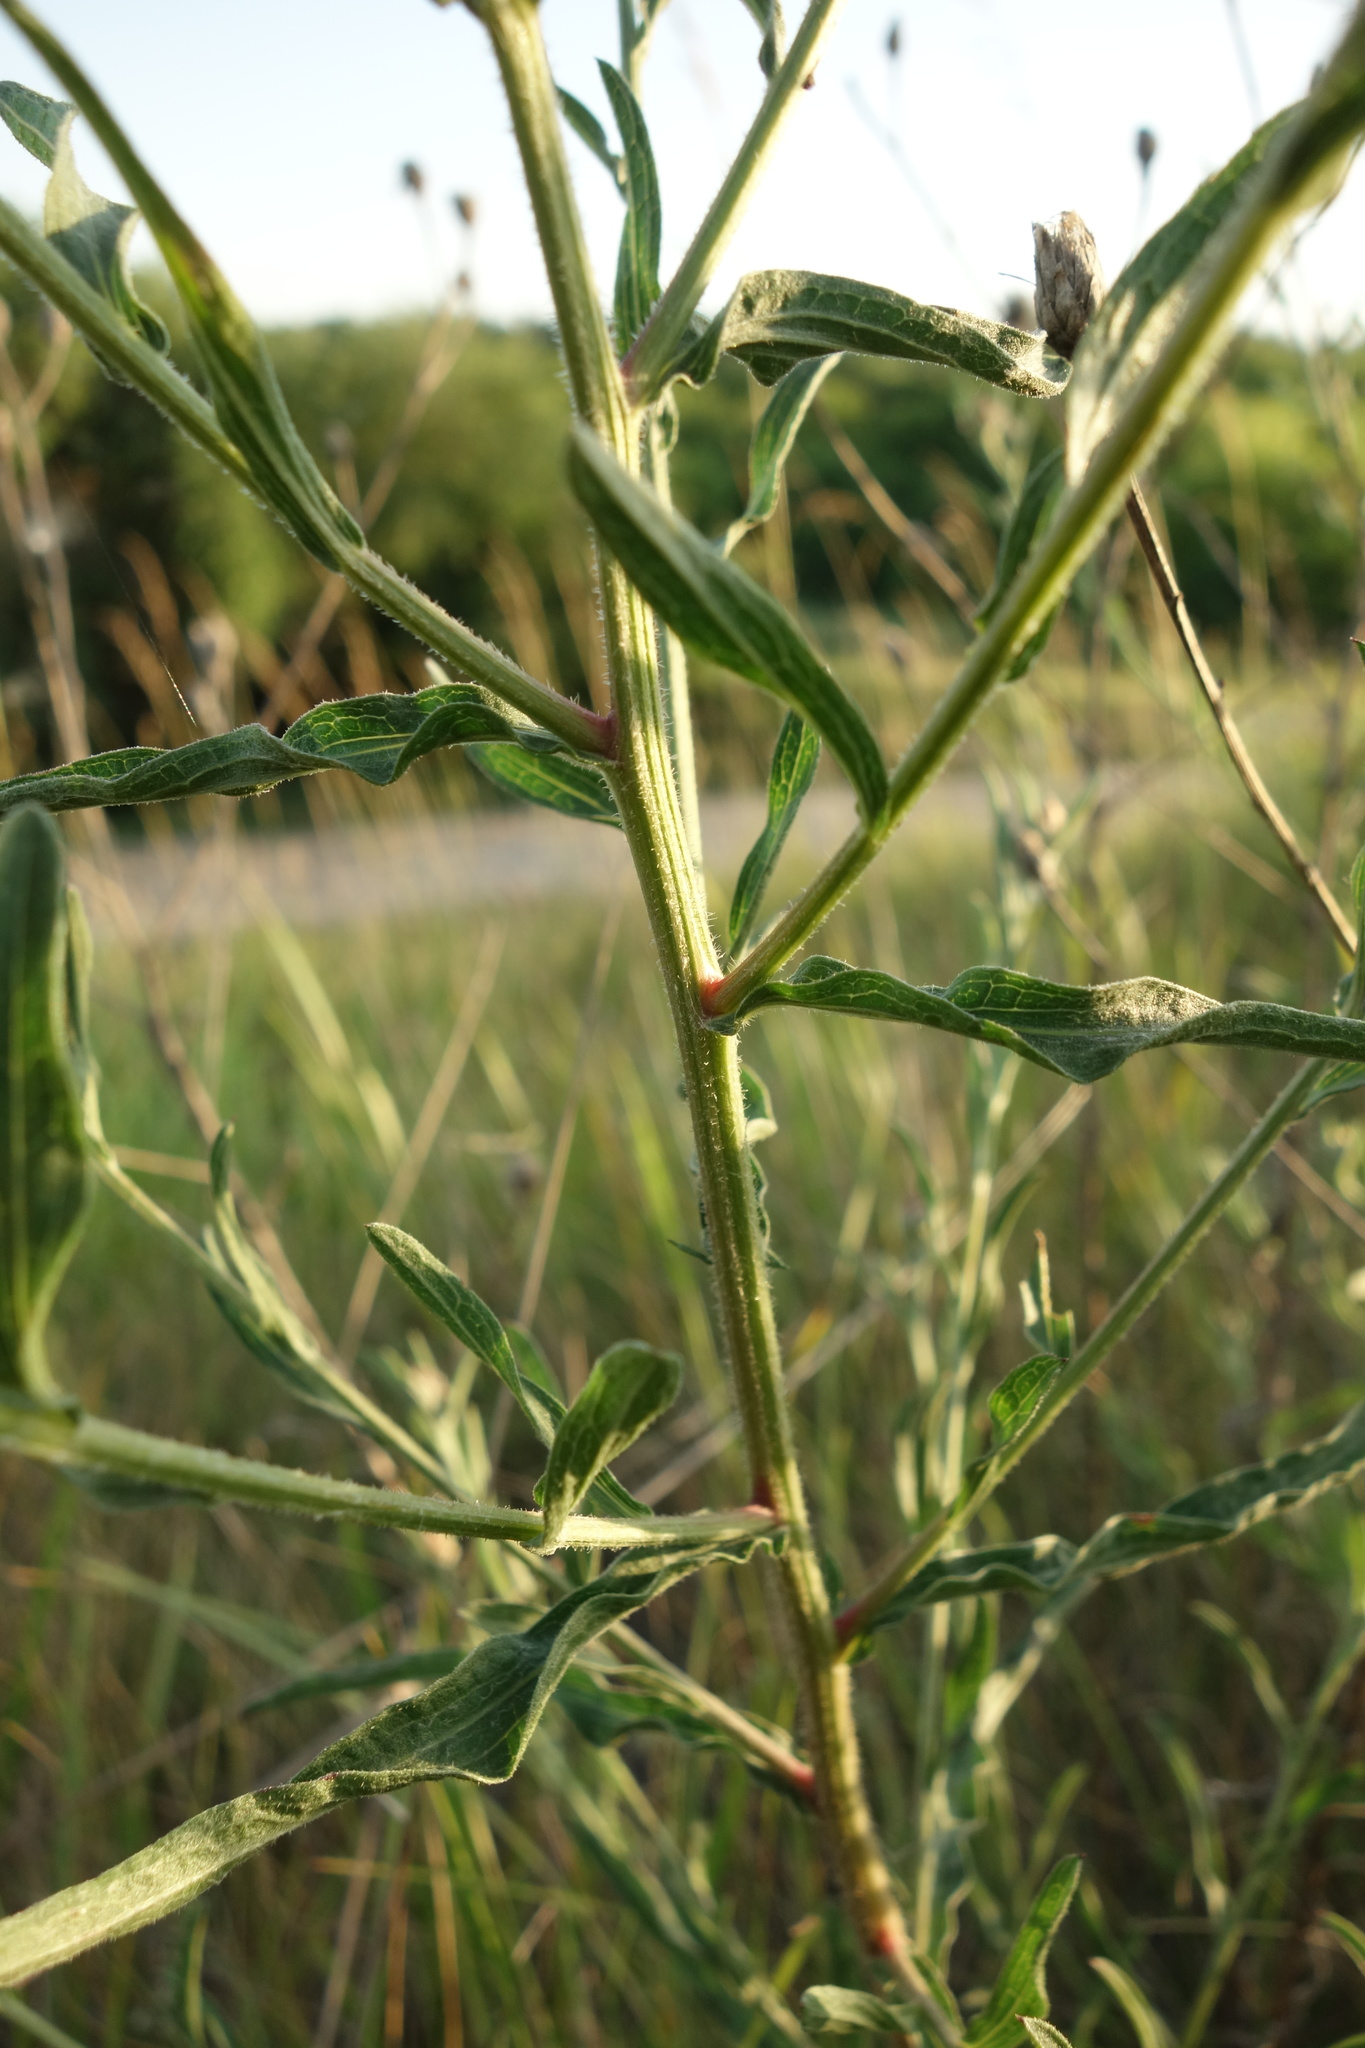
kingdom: Plantae
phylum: Tracheophyta
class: Magnoliopsida
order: Asterales
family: Asteraceae
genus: Centaurea
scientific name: Centaurea jacea
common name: Brown knapweed
